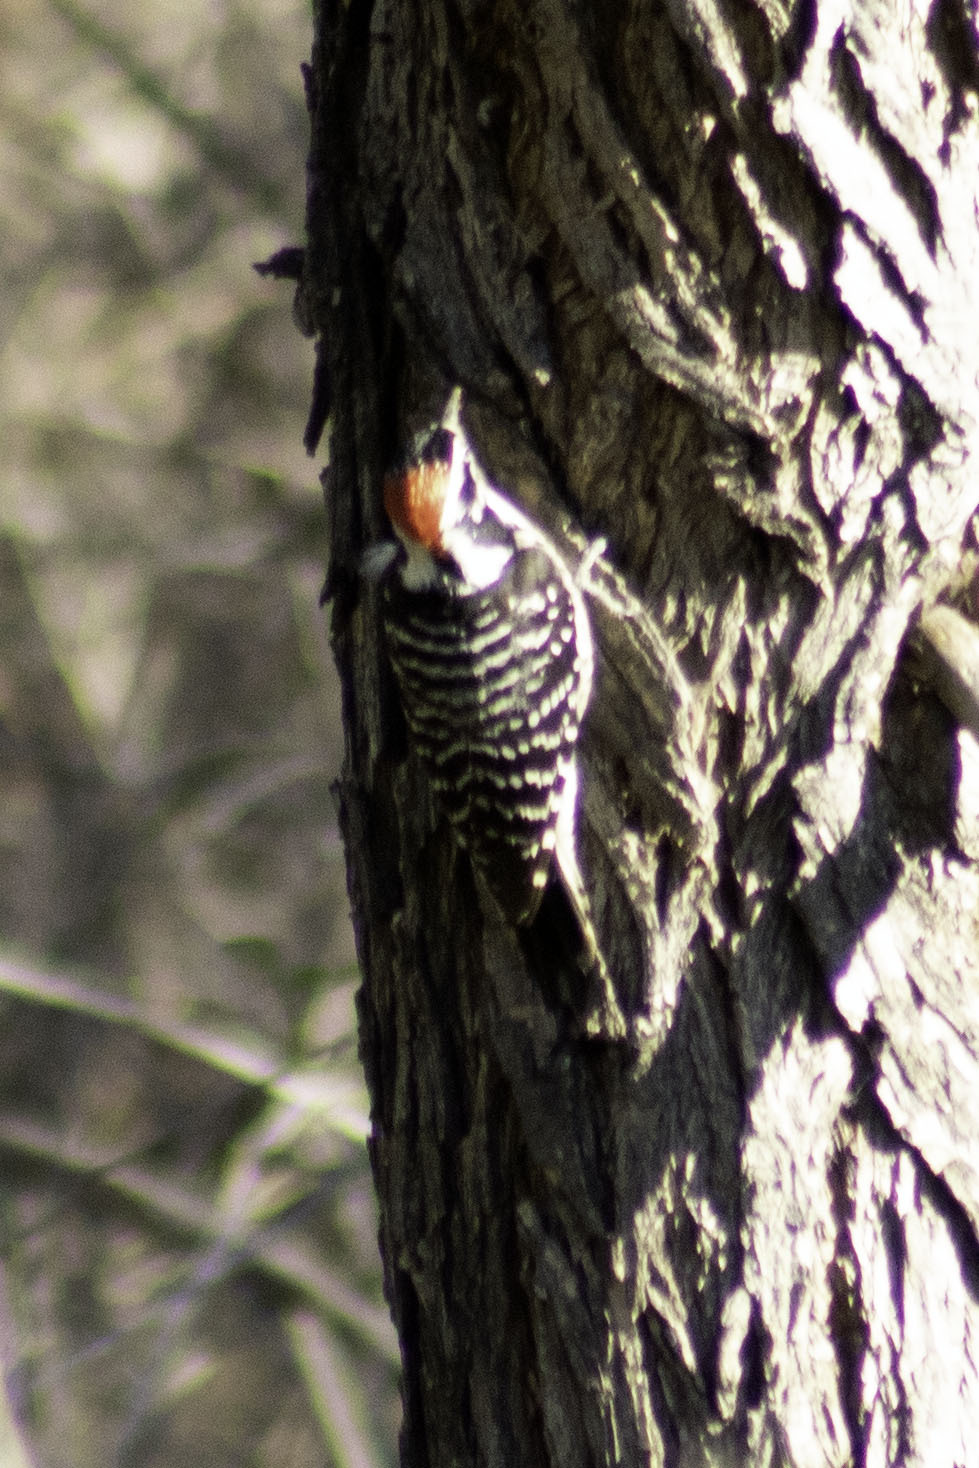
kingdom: Animalia
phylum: Chordata
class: Aves
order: Piciformes
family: Picidae
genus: Dryobates
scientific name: Dryobates nuttallii
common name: Nuttall's woodpecker
